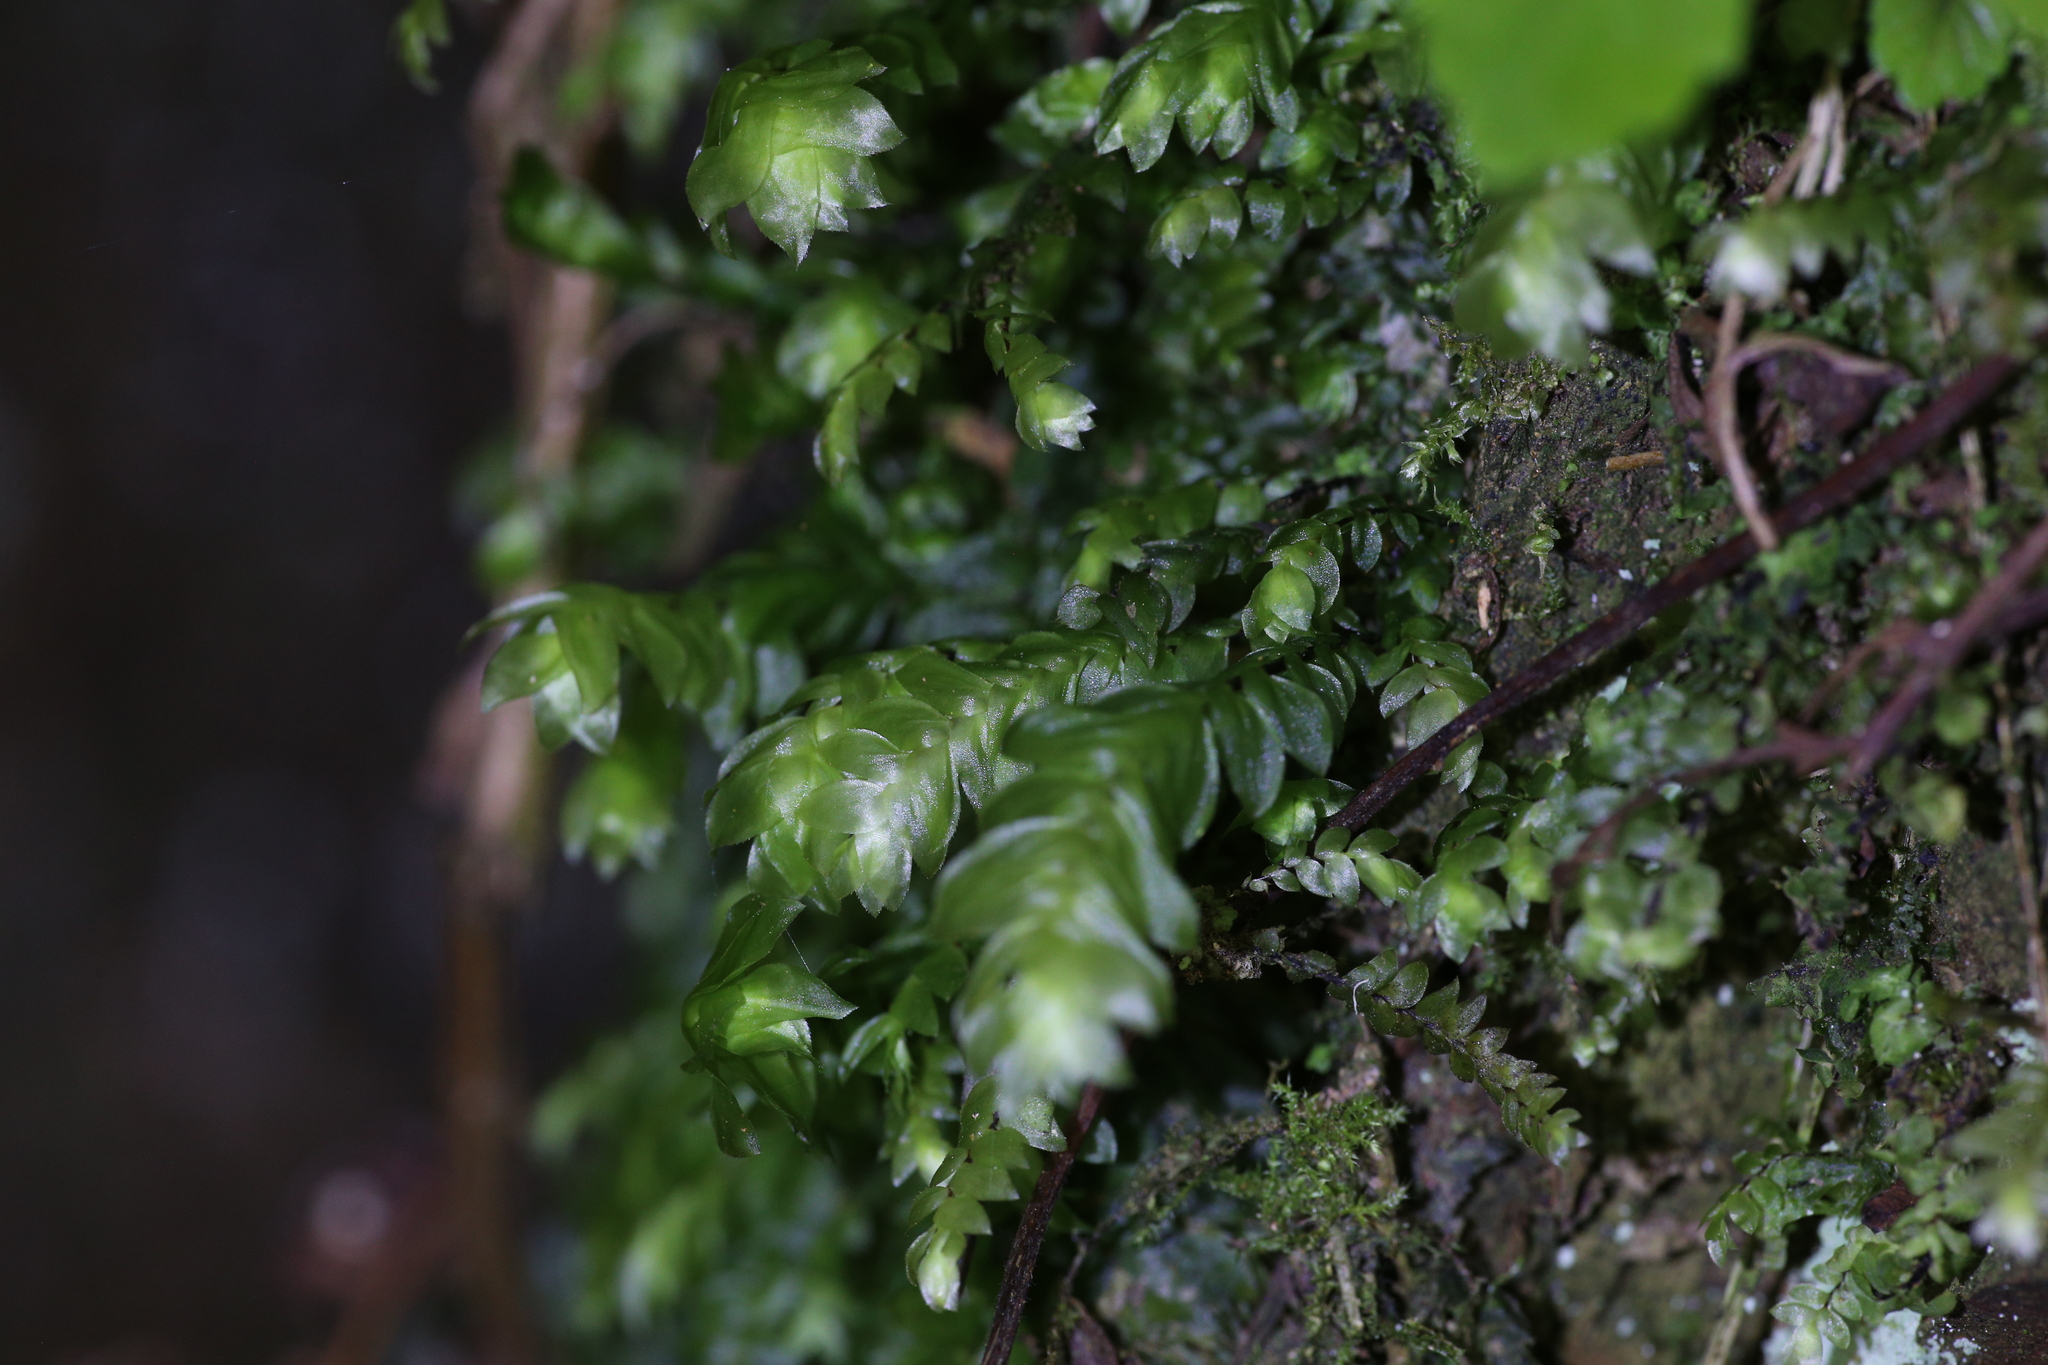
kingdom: Plantae
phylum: Bryophyta
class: Bryopsida
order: Hookeriales
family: Daltoniaceae
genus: Achrophyllum
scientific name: Achrophyllum dentatum
